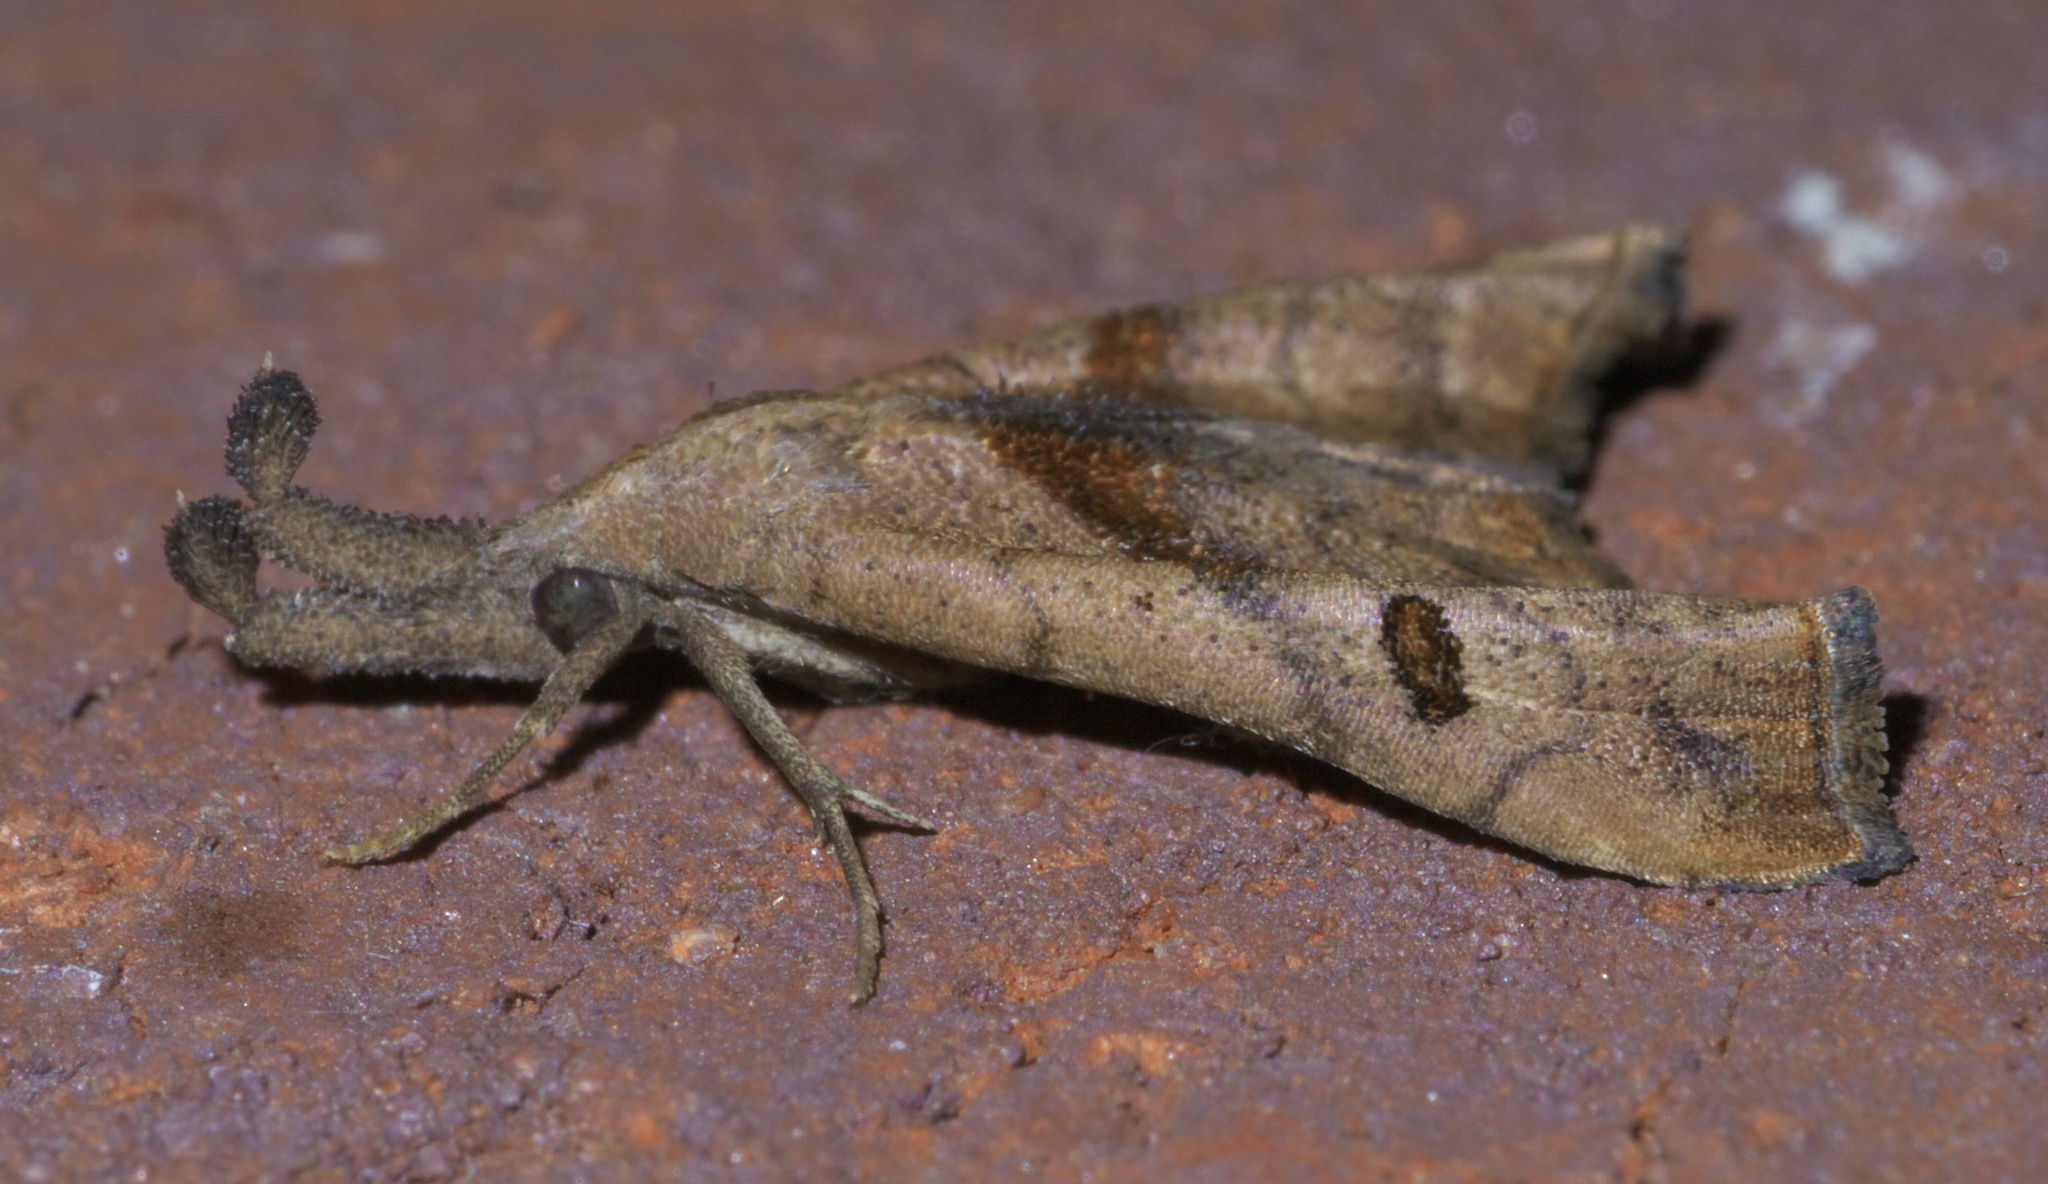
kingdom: Animalia
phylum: Arthropoda
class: Insecta
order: Lepidoptera
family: Erebidae
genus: Palthis
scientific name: Palthis angulalis
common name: Dark-spotted palthis moth
